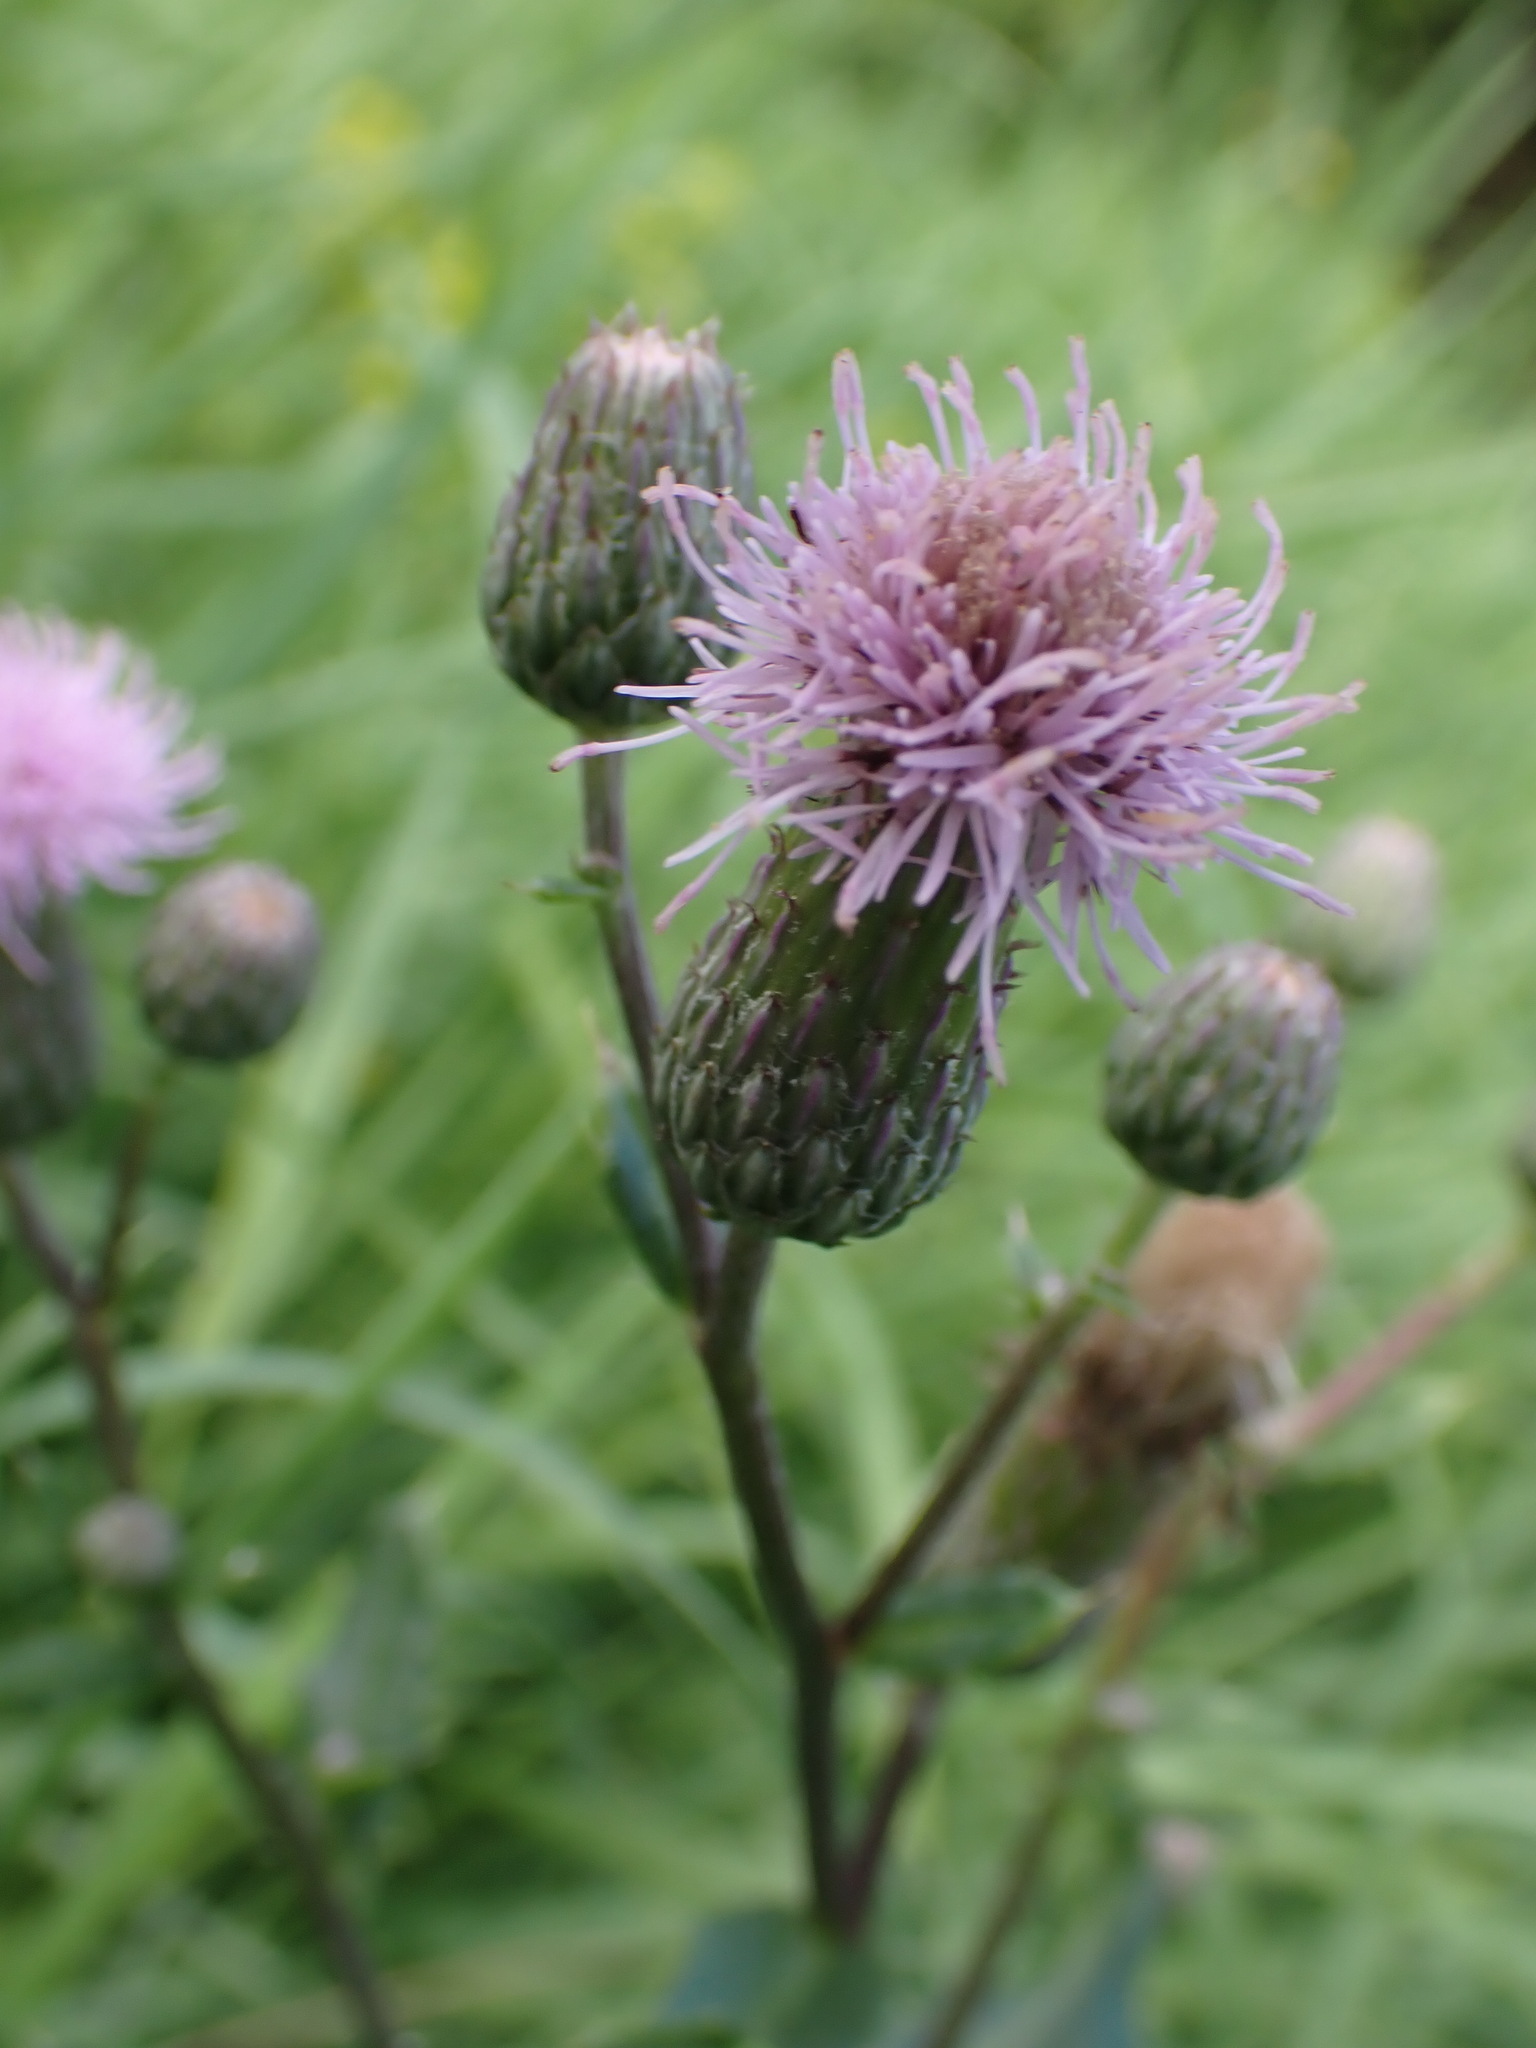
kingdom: Plantae
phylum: Tracheophyta
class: Magnoliopsida
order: Asterales
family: Asteraceae
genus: Cirsium
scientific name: Cirsium arvense
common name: Creeping thistle
